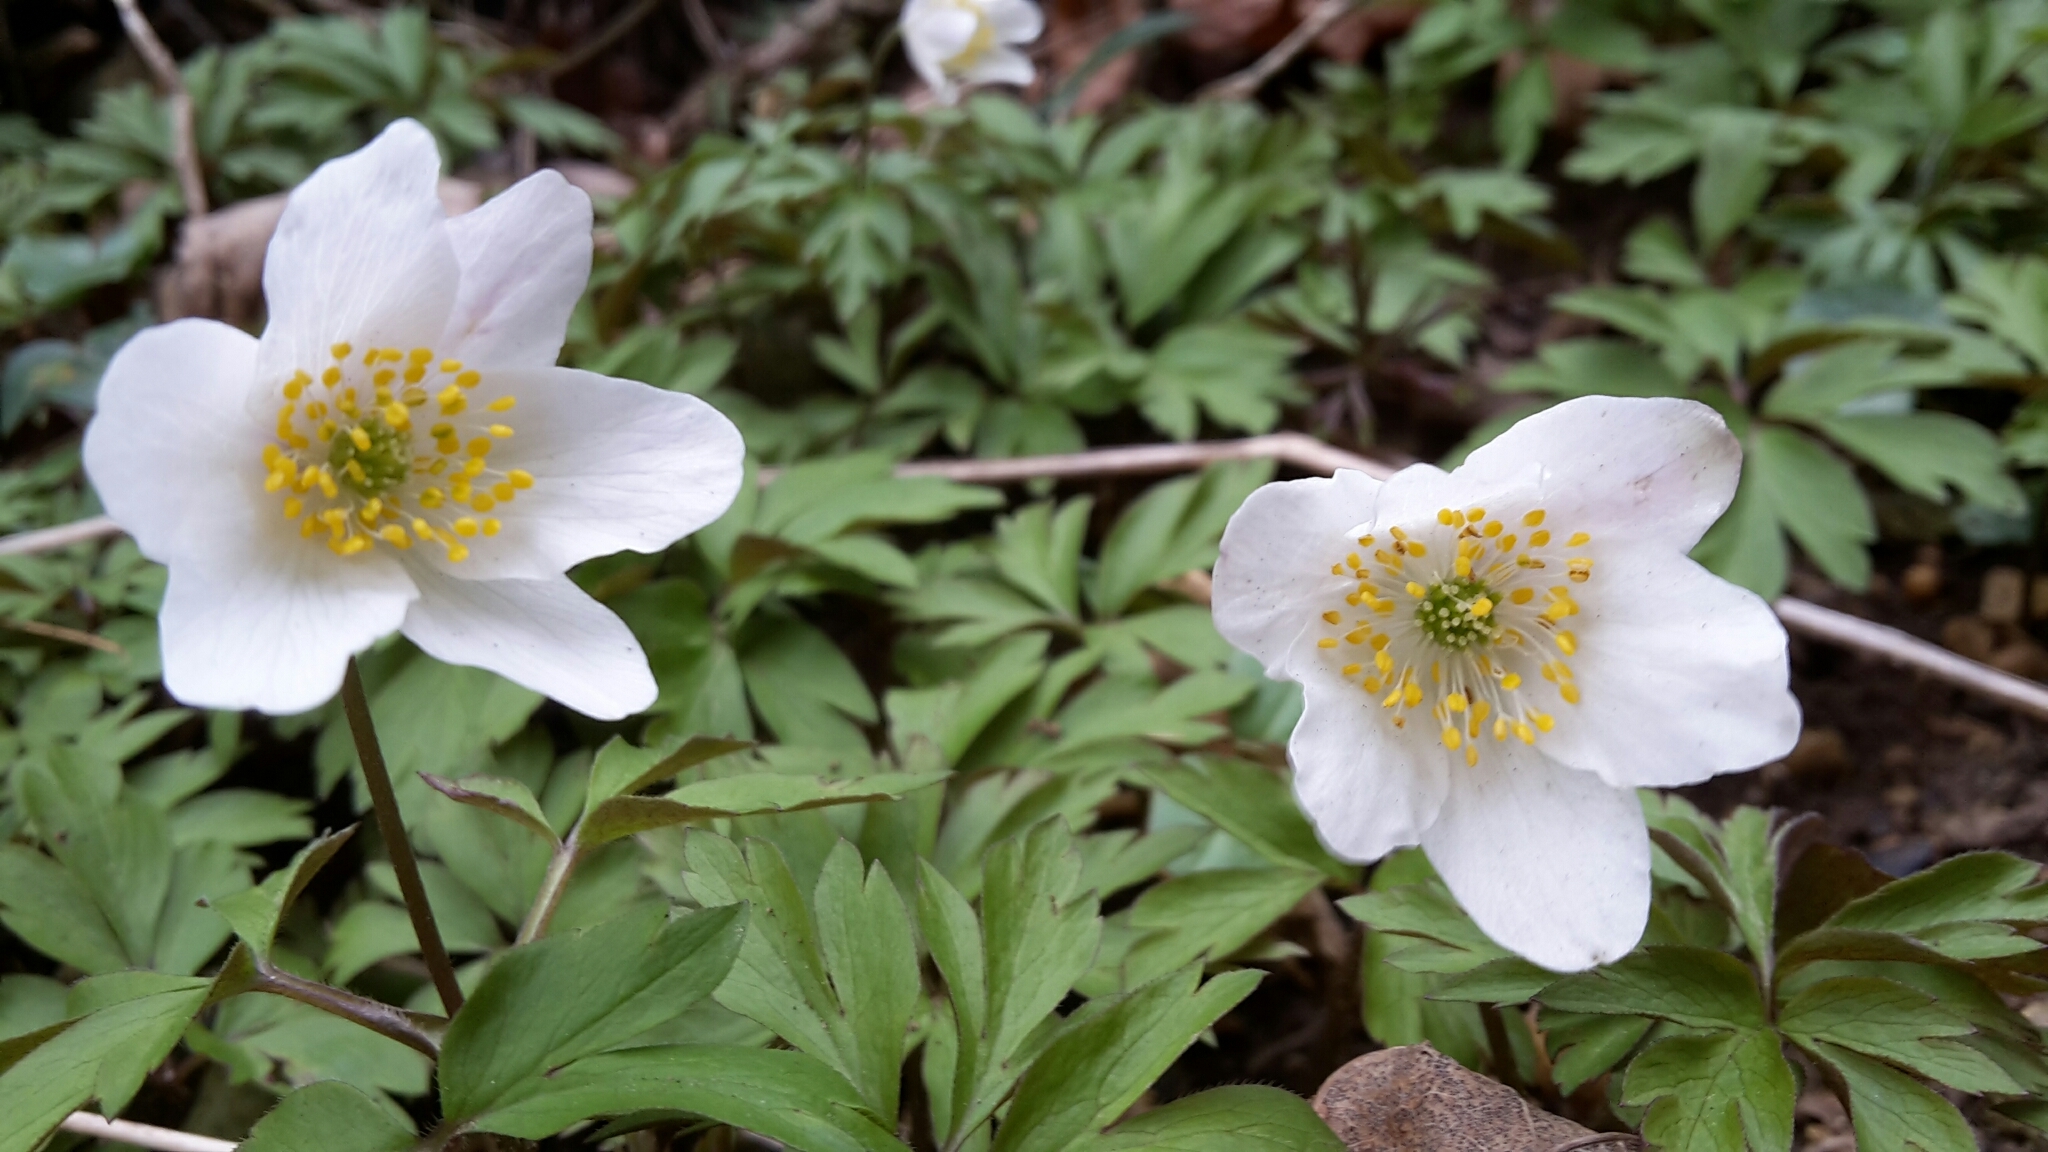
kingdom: Plantae
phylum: Tracheophyta
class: Magnoliopsida
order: Ranunculales
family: Ranunculaceae
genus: Anemone
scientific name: Anemone nemorosa
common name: Wood anemone
